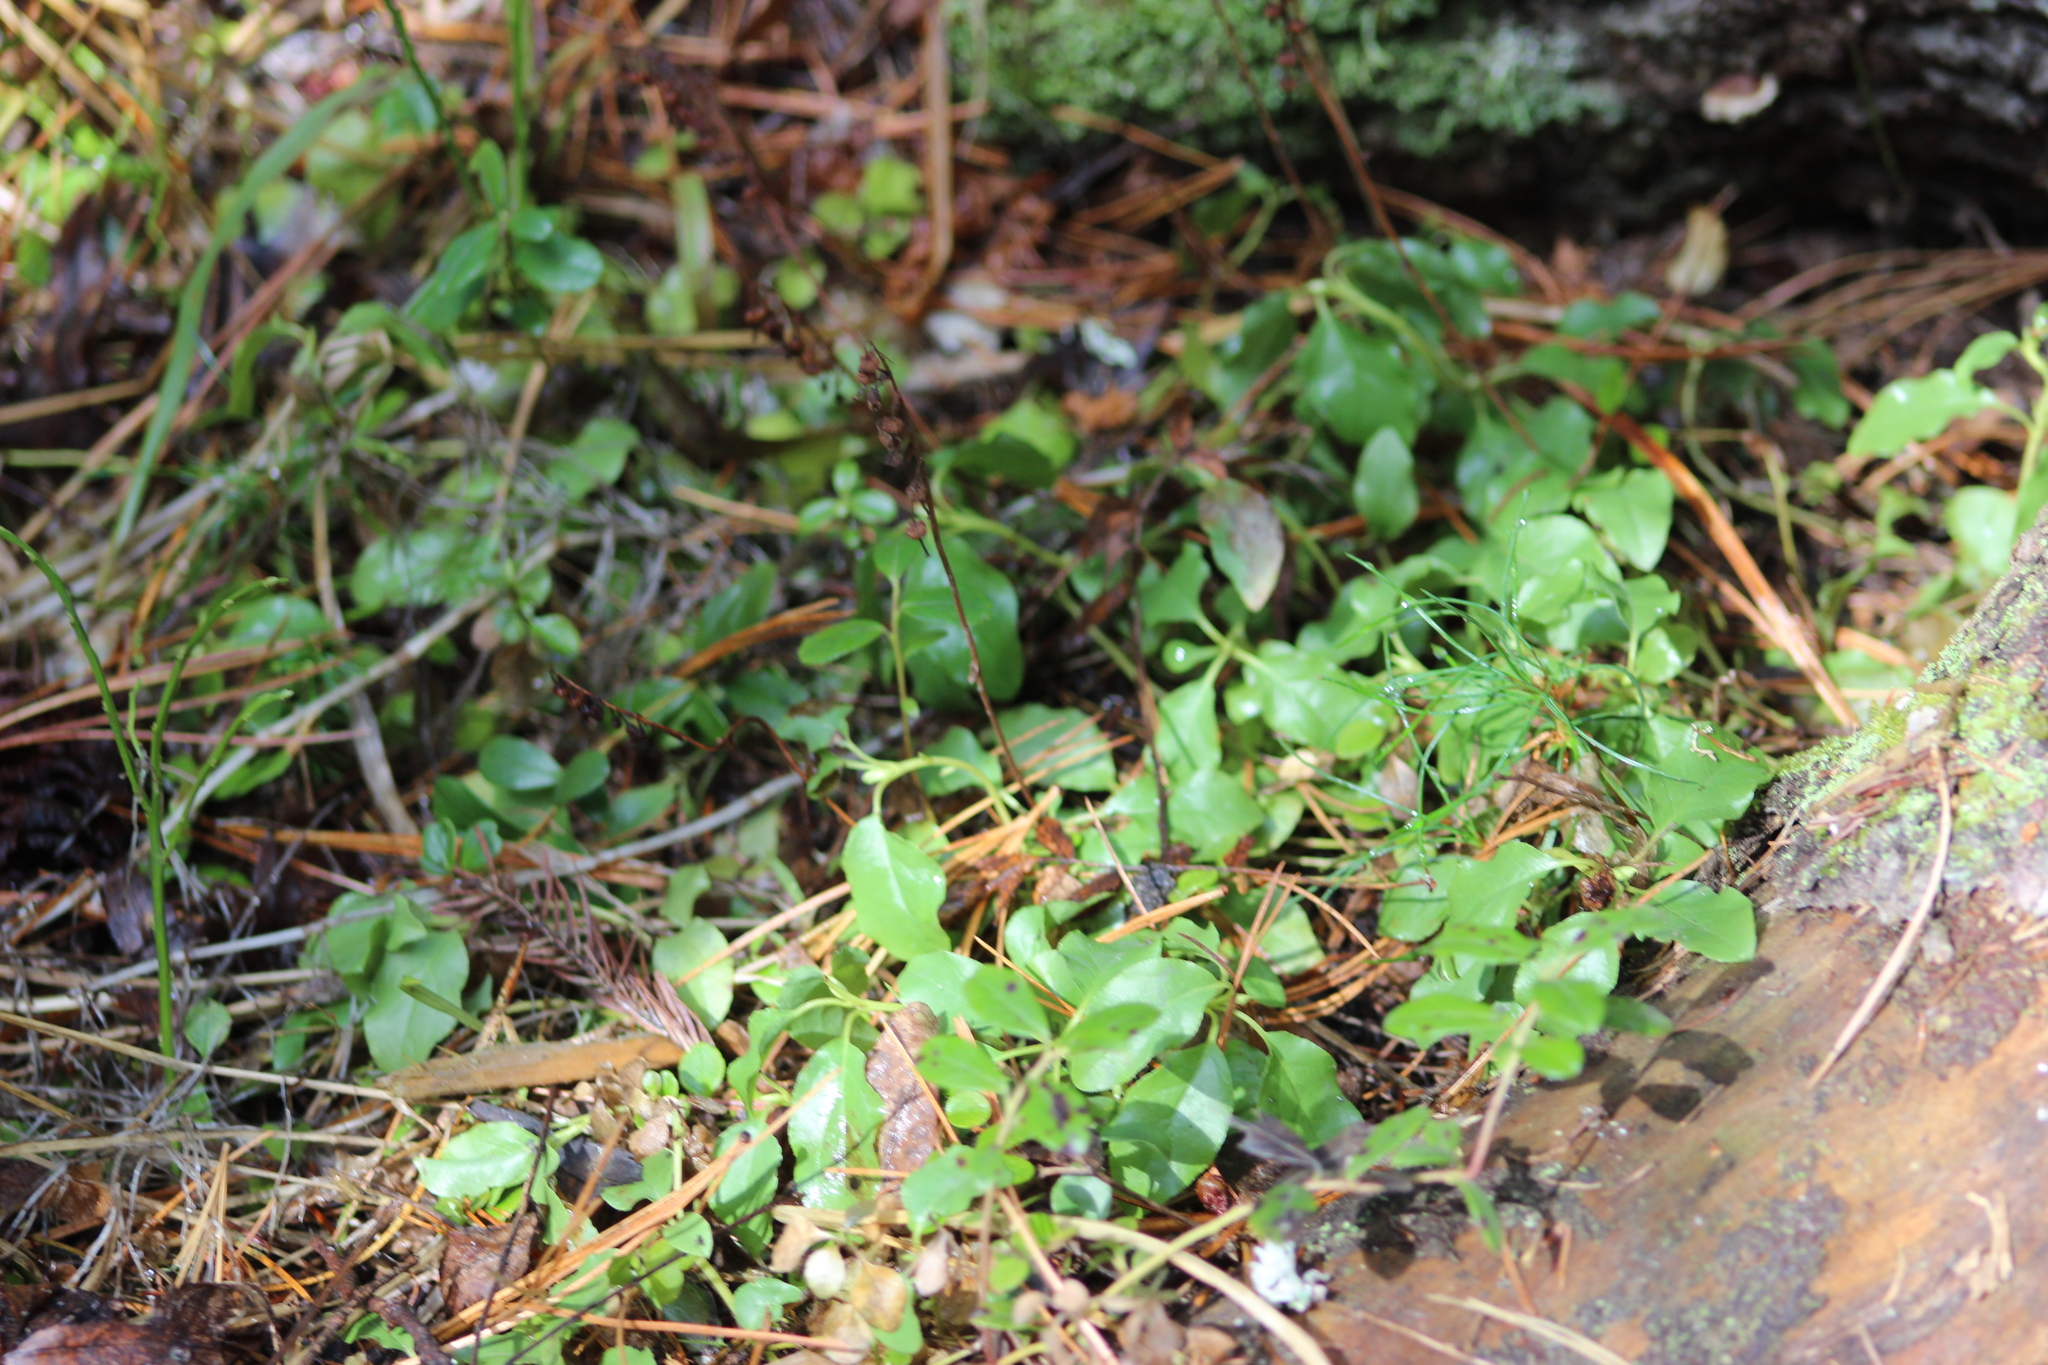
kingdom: Plantae
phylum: Tracheophyta
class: Magnoliopsida
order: Ericales
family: Ericaceae
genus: Orthilia
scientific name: Orthilia secunda
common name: One-sided orthilia
